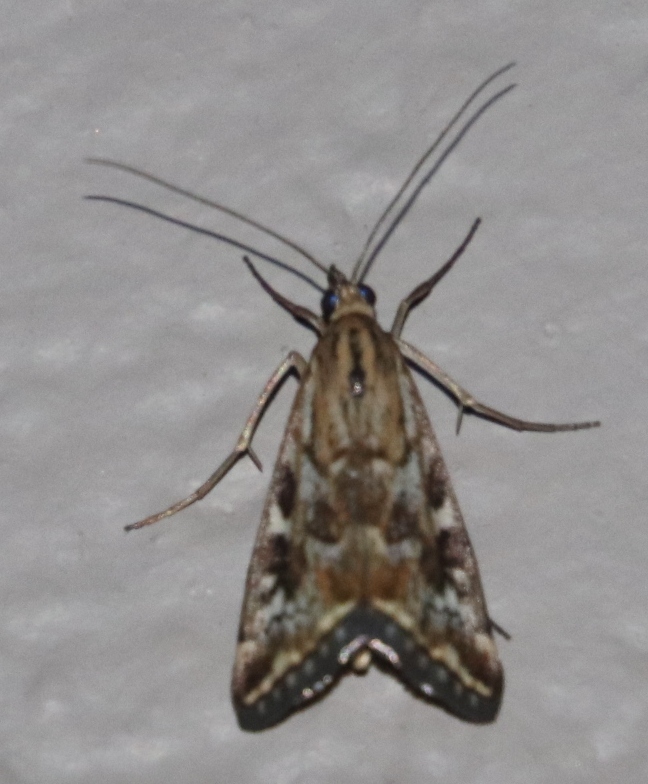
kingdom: Animalia
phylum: Arthropoda
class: Insecta
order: Lepidoptera
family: Crambidae
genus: Loxostege
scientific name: Loxostege frustalis
